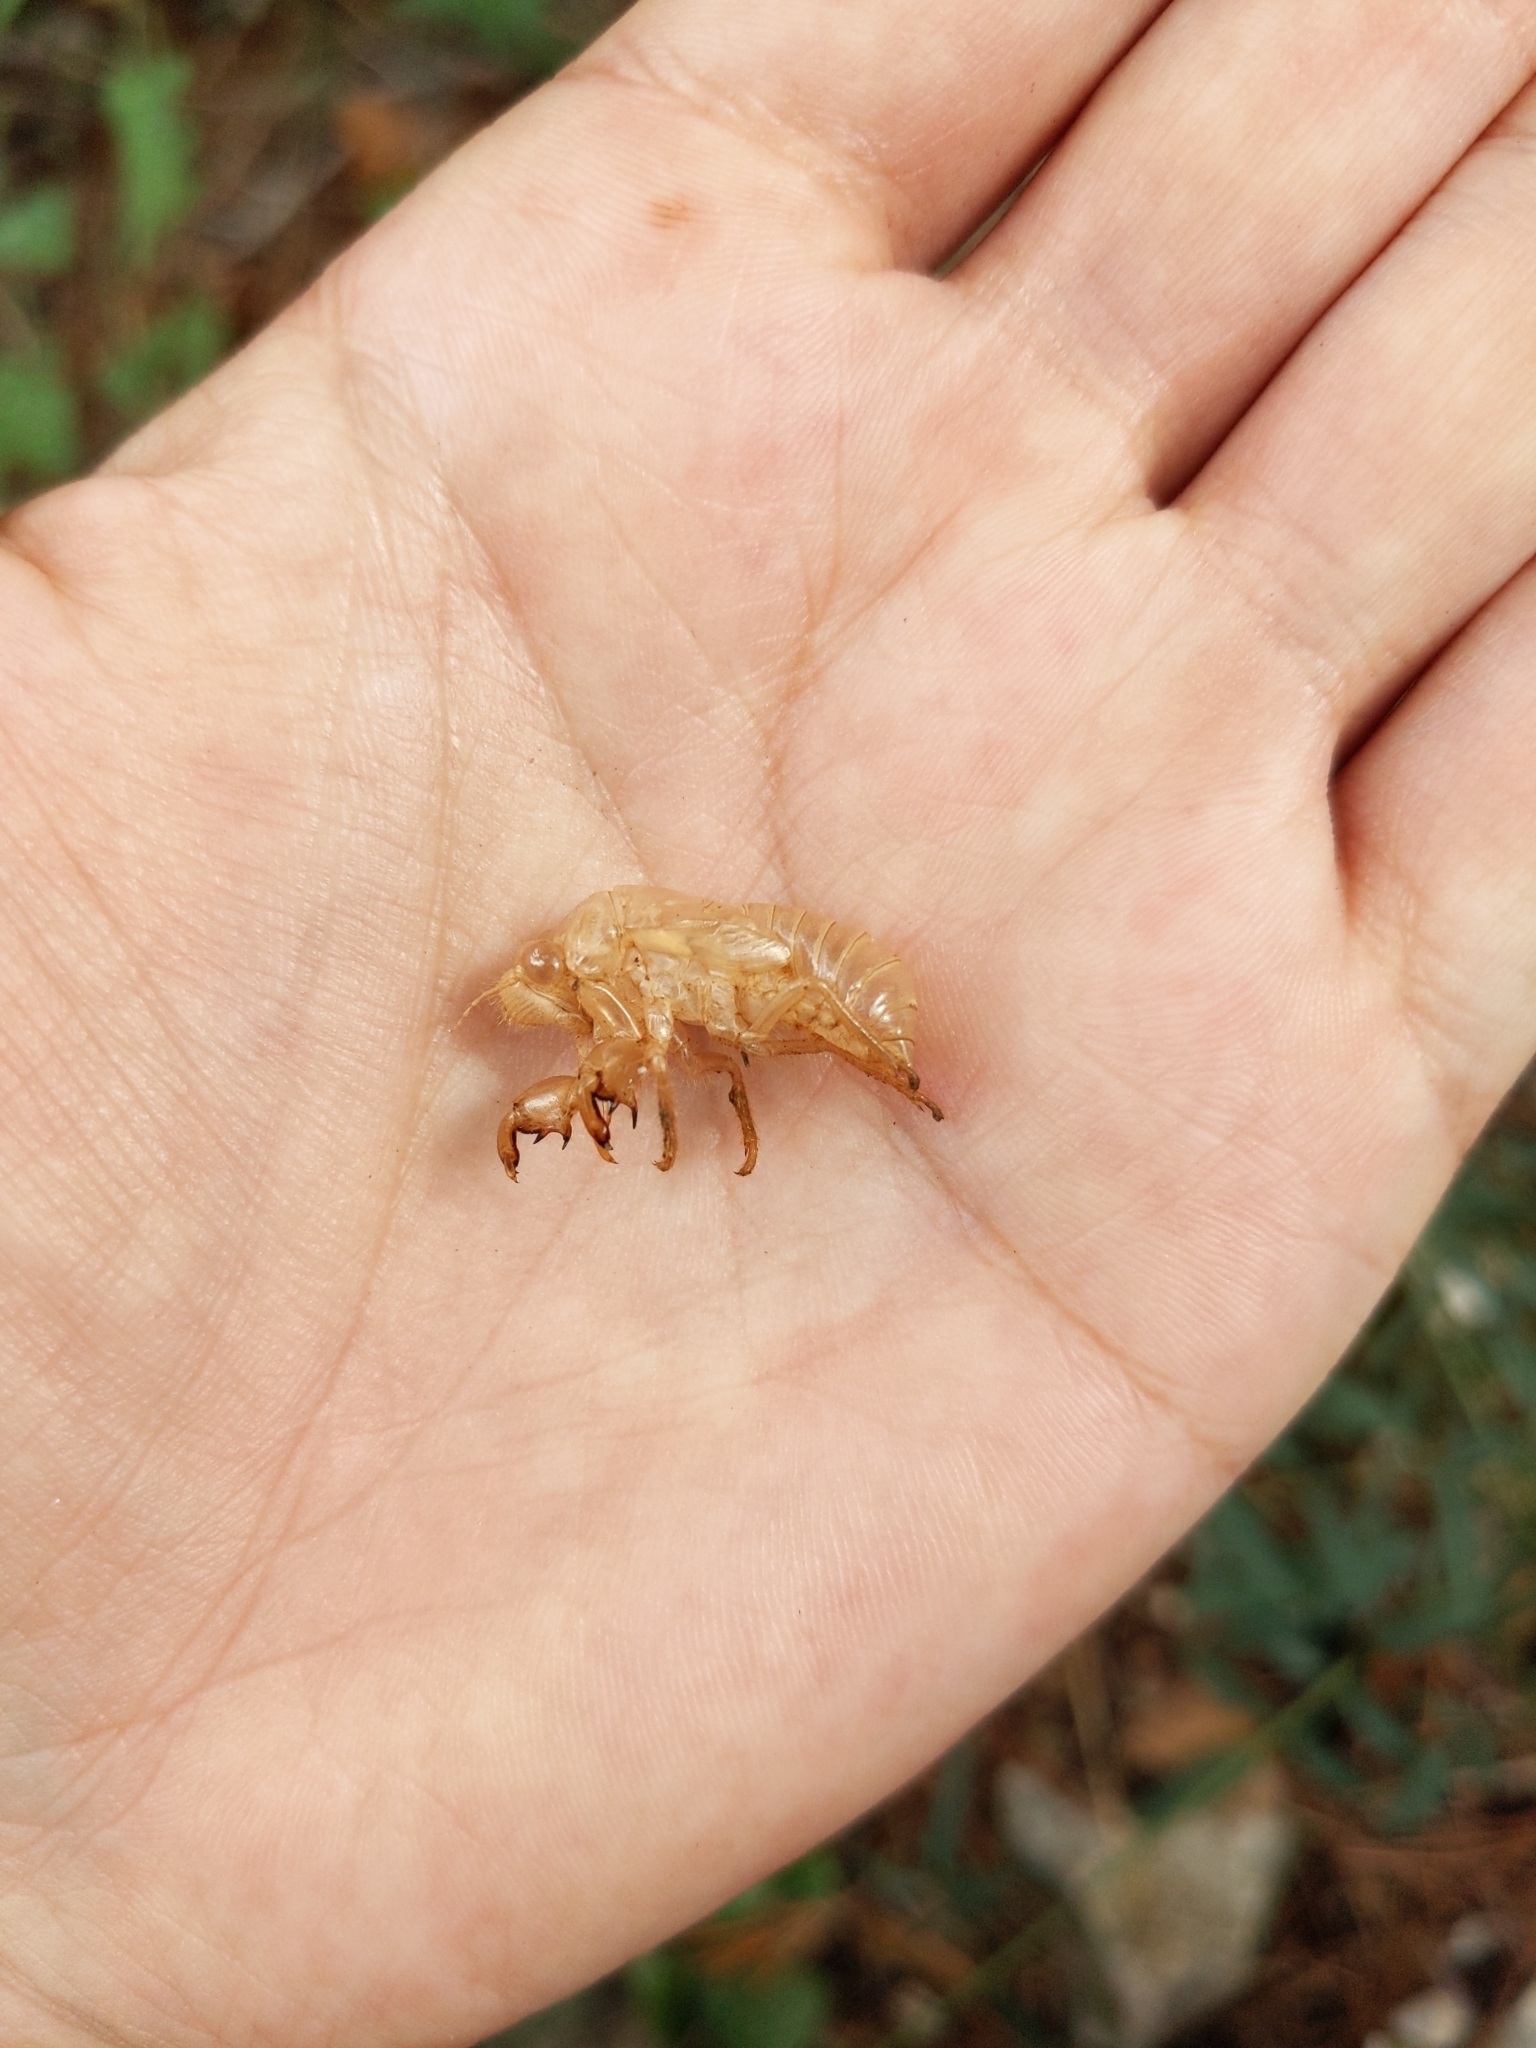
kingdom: Animalia
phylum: Arthropoda
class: Insecta
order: Hemiptera
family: Cicadidae
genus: Cicada
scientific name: Cicada orni
